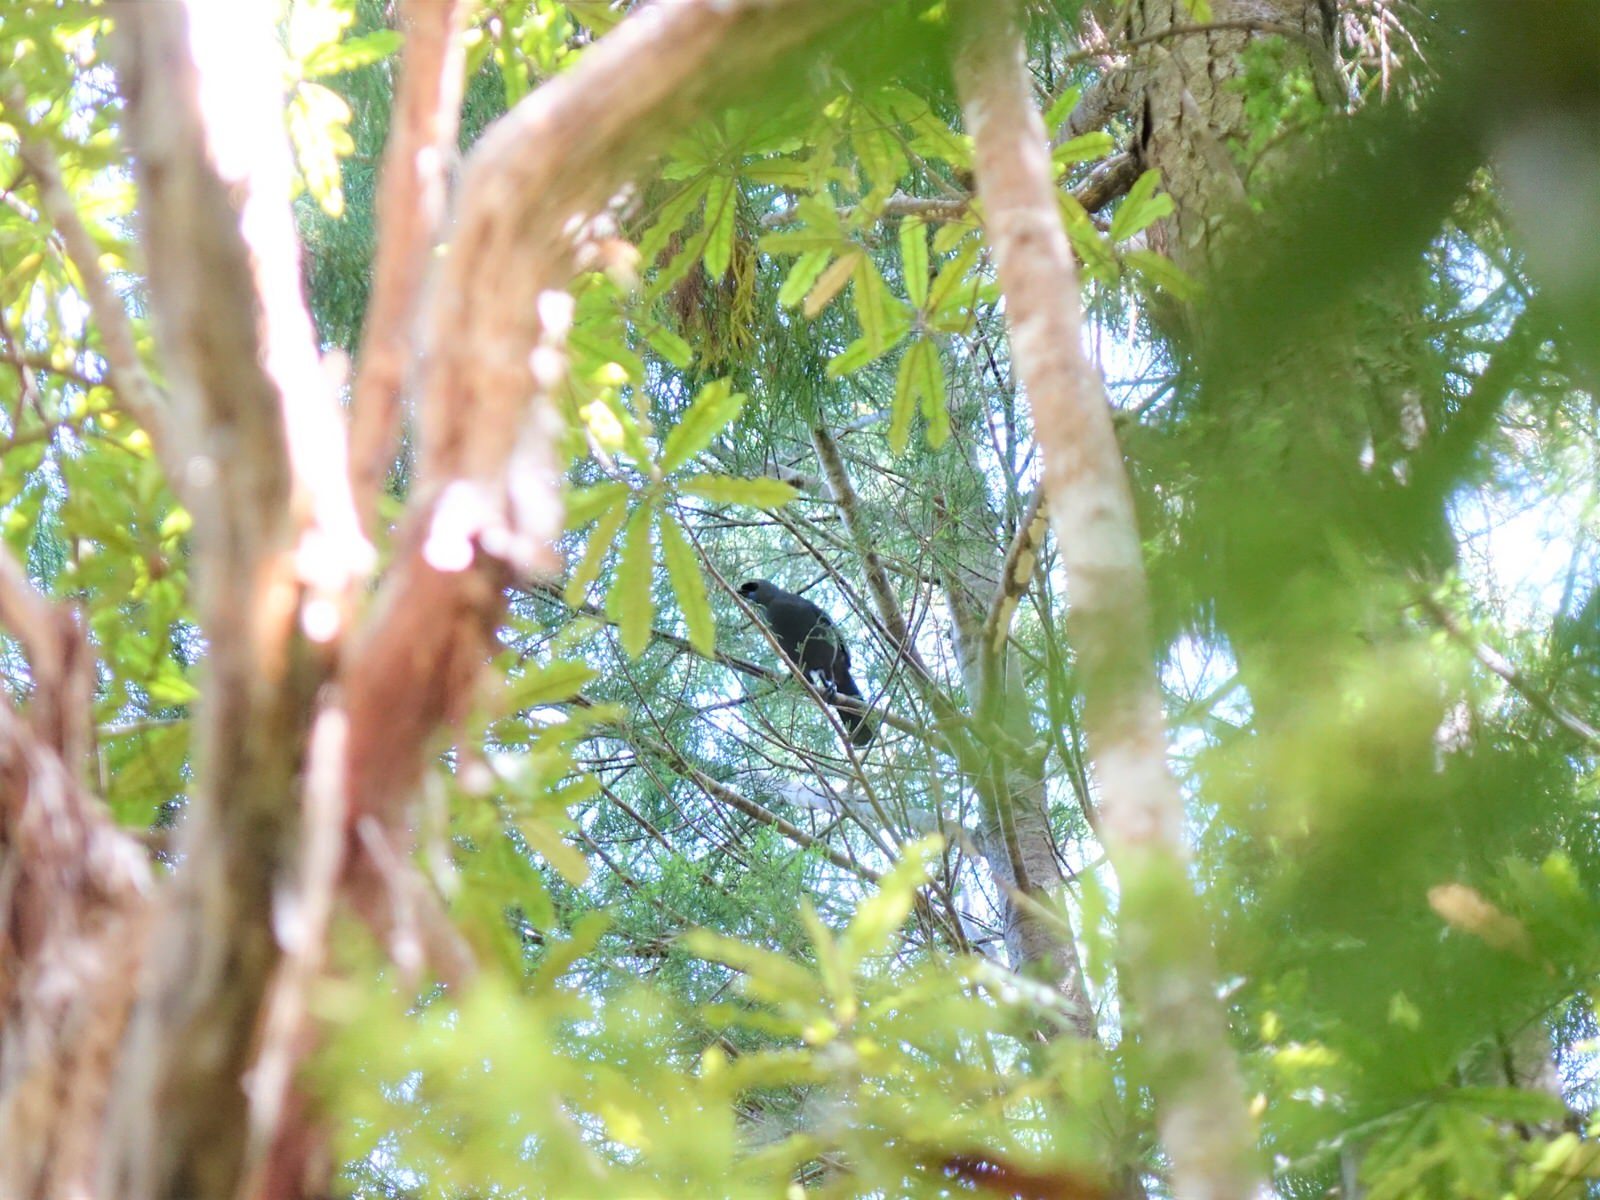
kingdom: Animalia
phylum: Chordata
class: Aves
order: Passeriformes
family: Callaeatidae
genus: Callaeas
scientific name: Callaeas cinereus
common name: South island kokako
